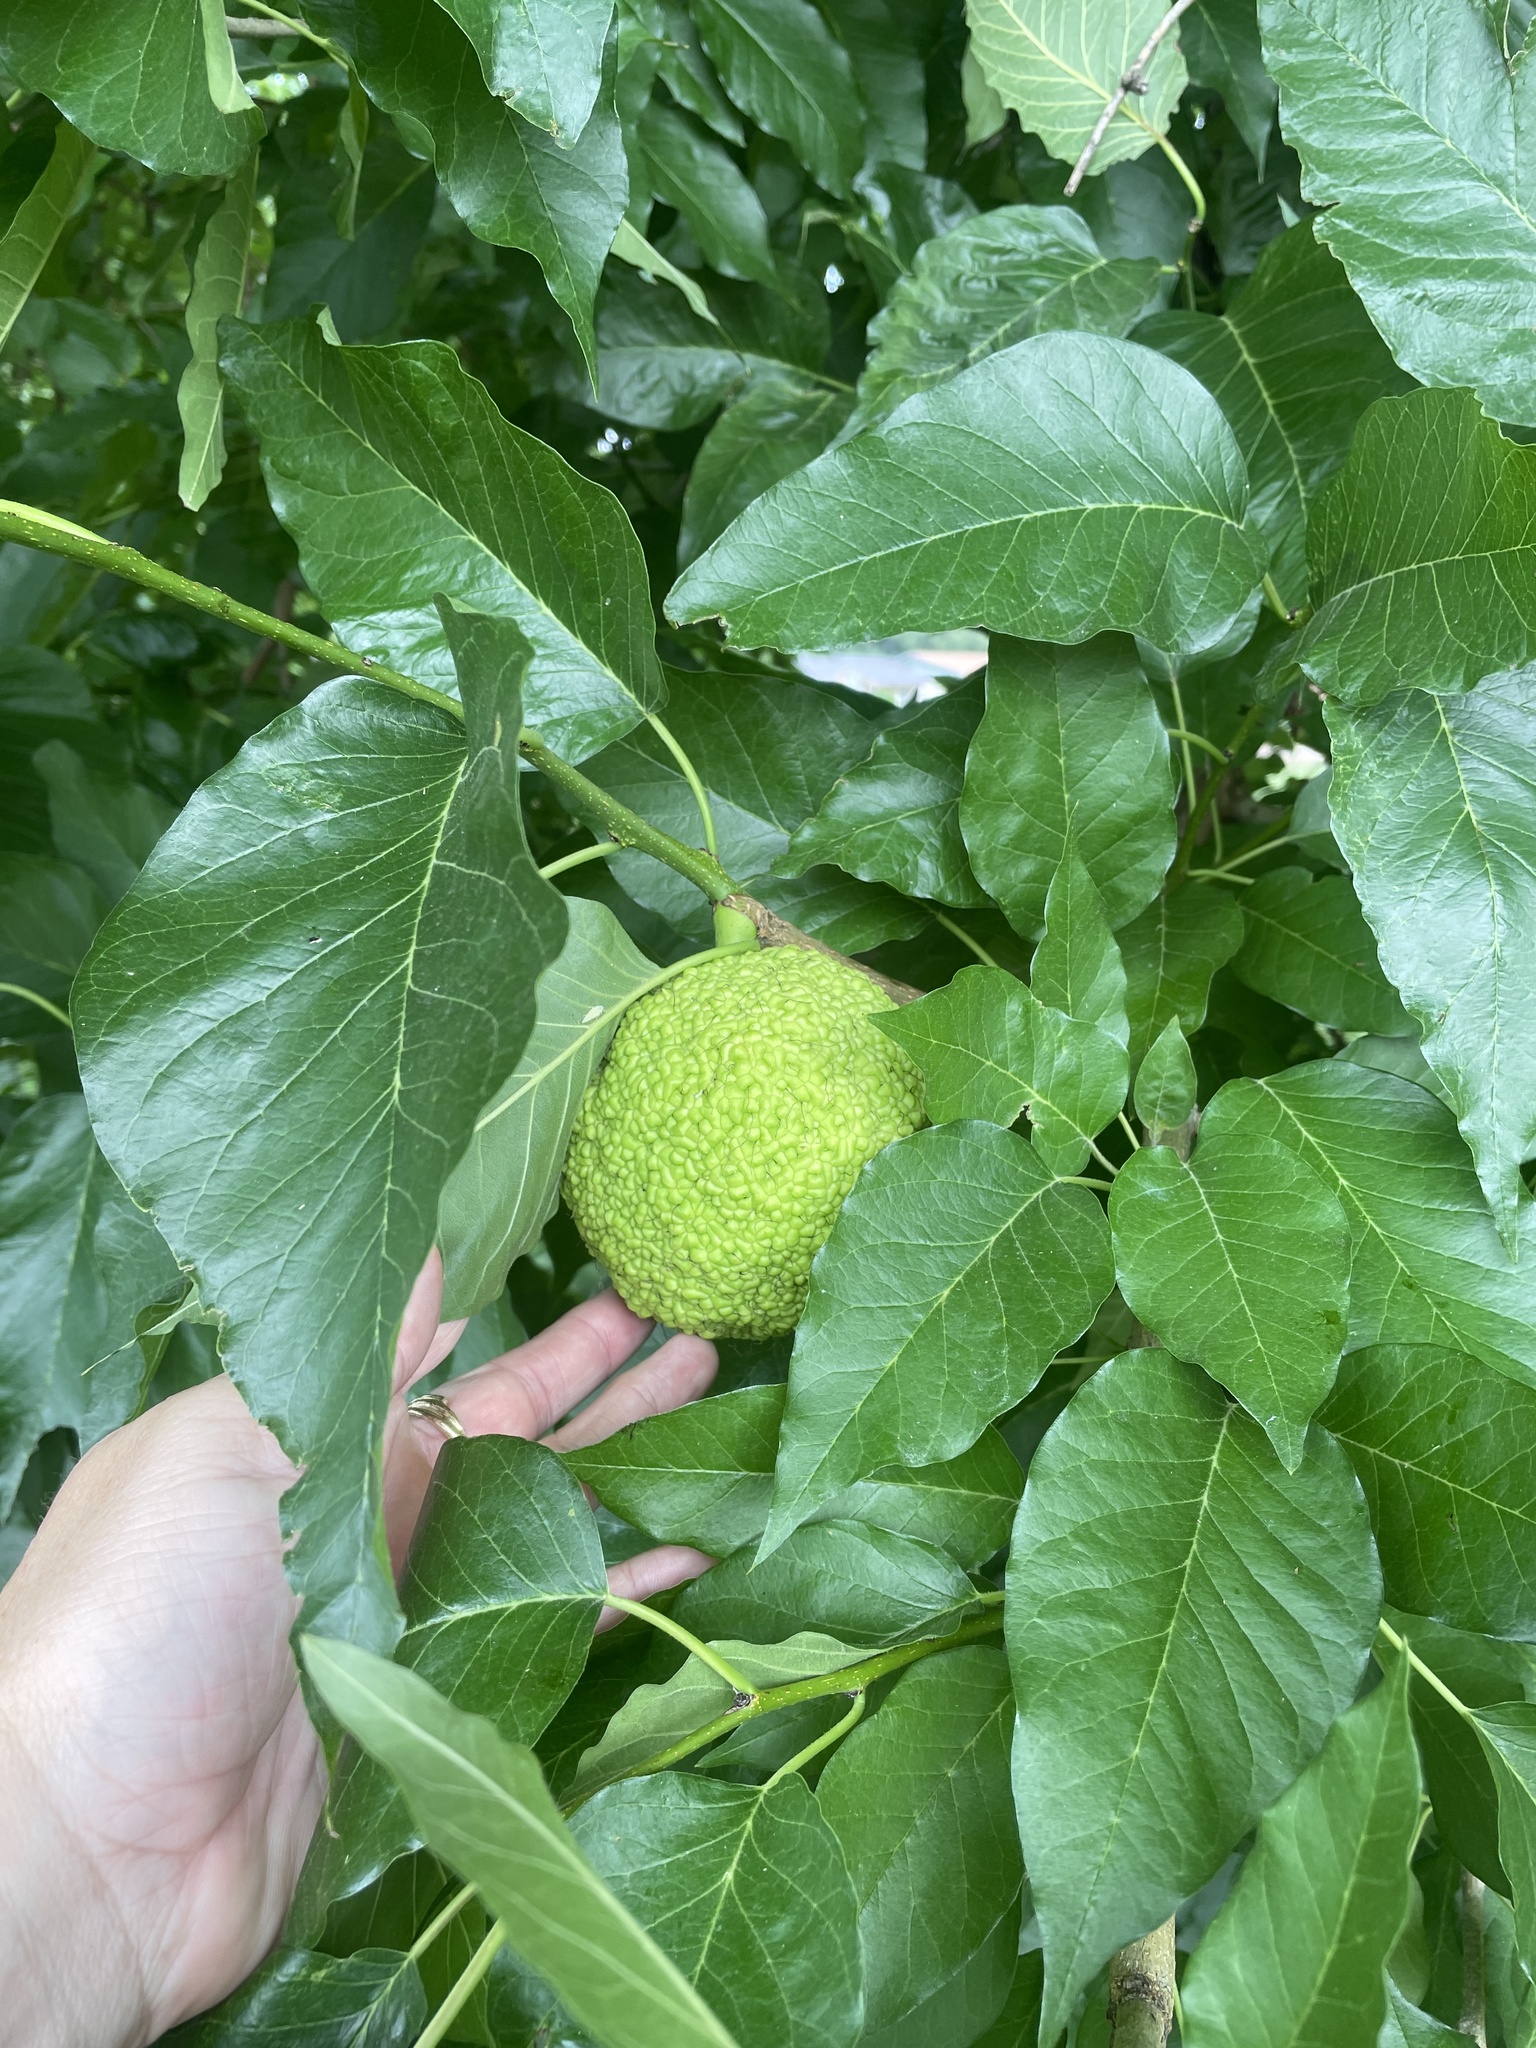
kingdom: Plantae
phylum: Tracheophyta
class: Magnoliopsida
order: Rosales
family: Moraceae
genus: Maclura
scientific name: Maclura pomifera
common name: Osage-orange
